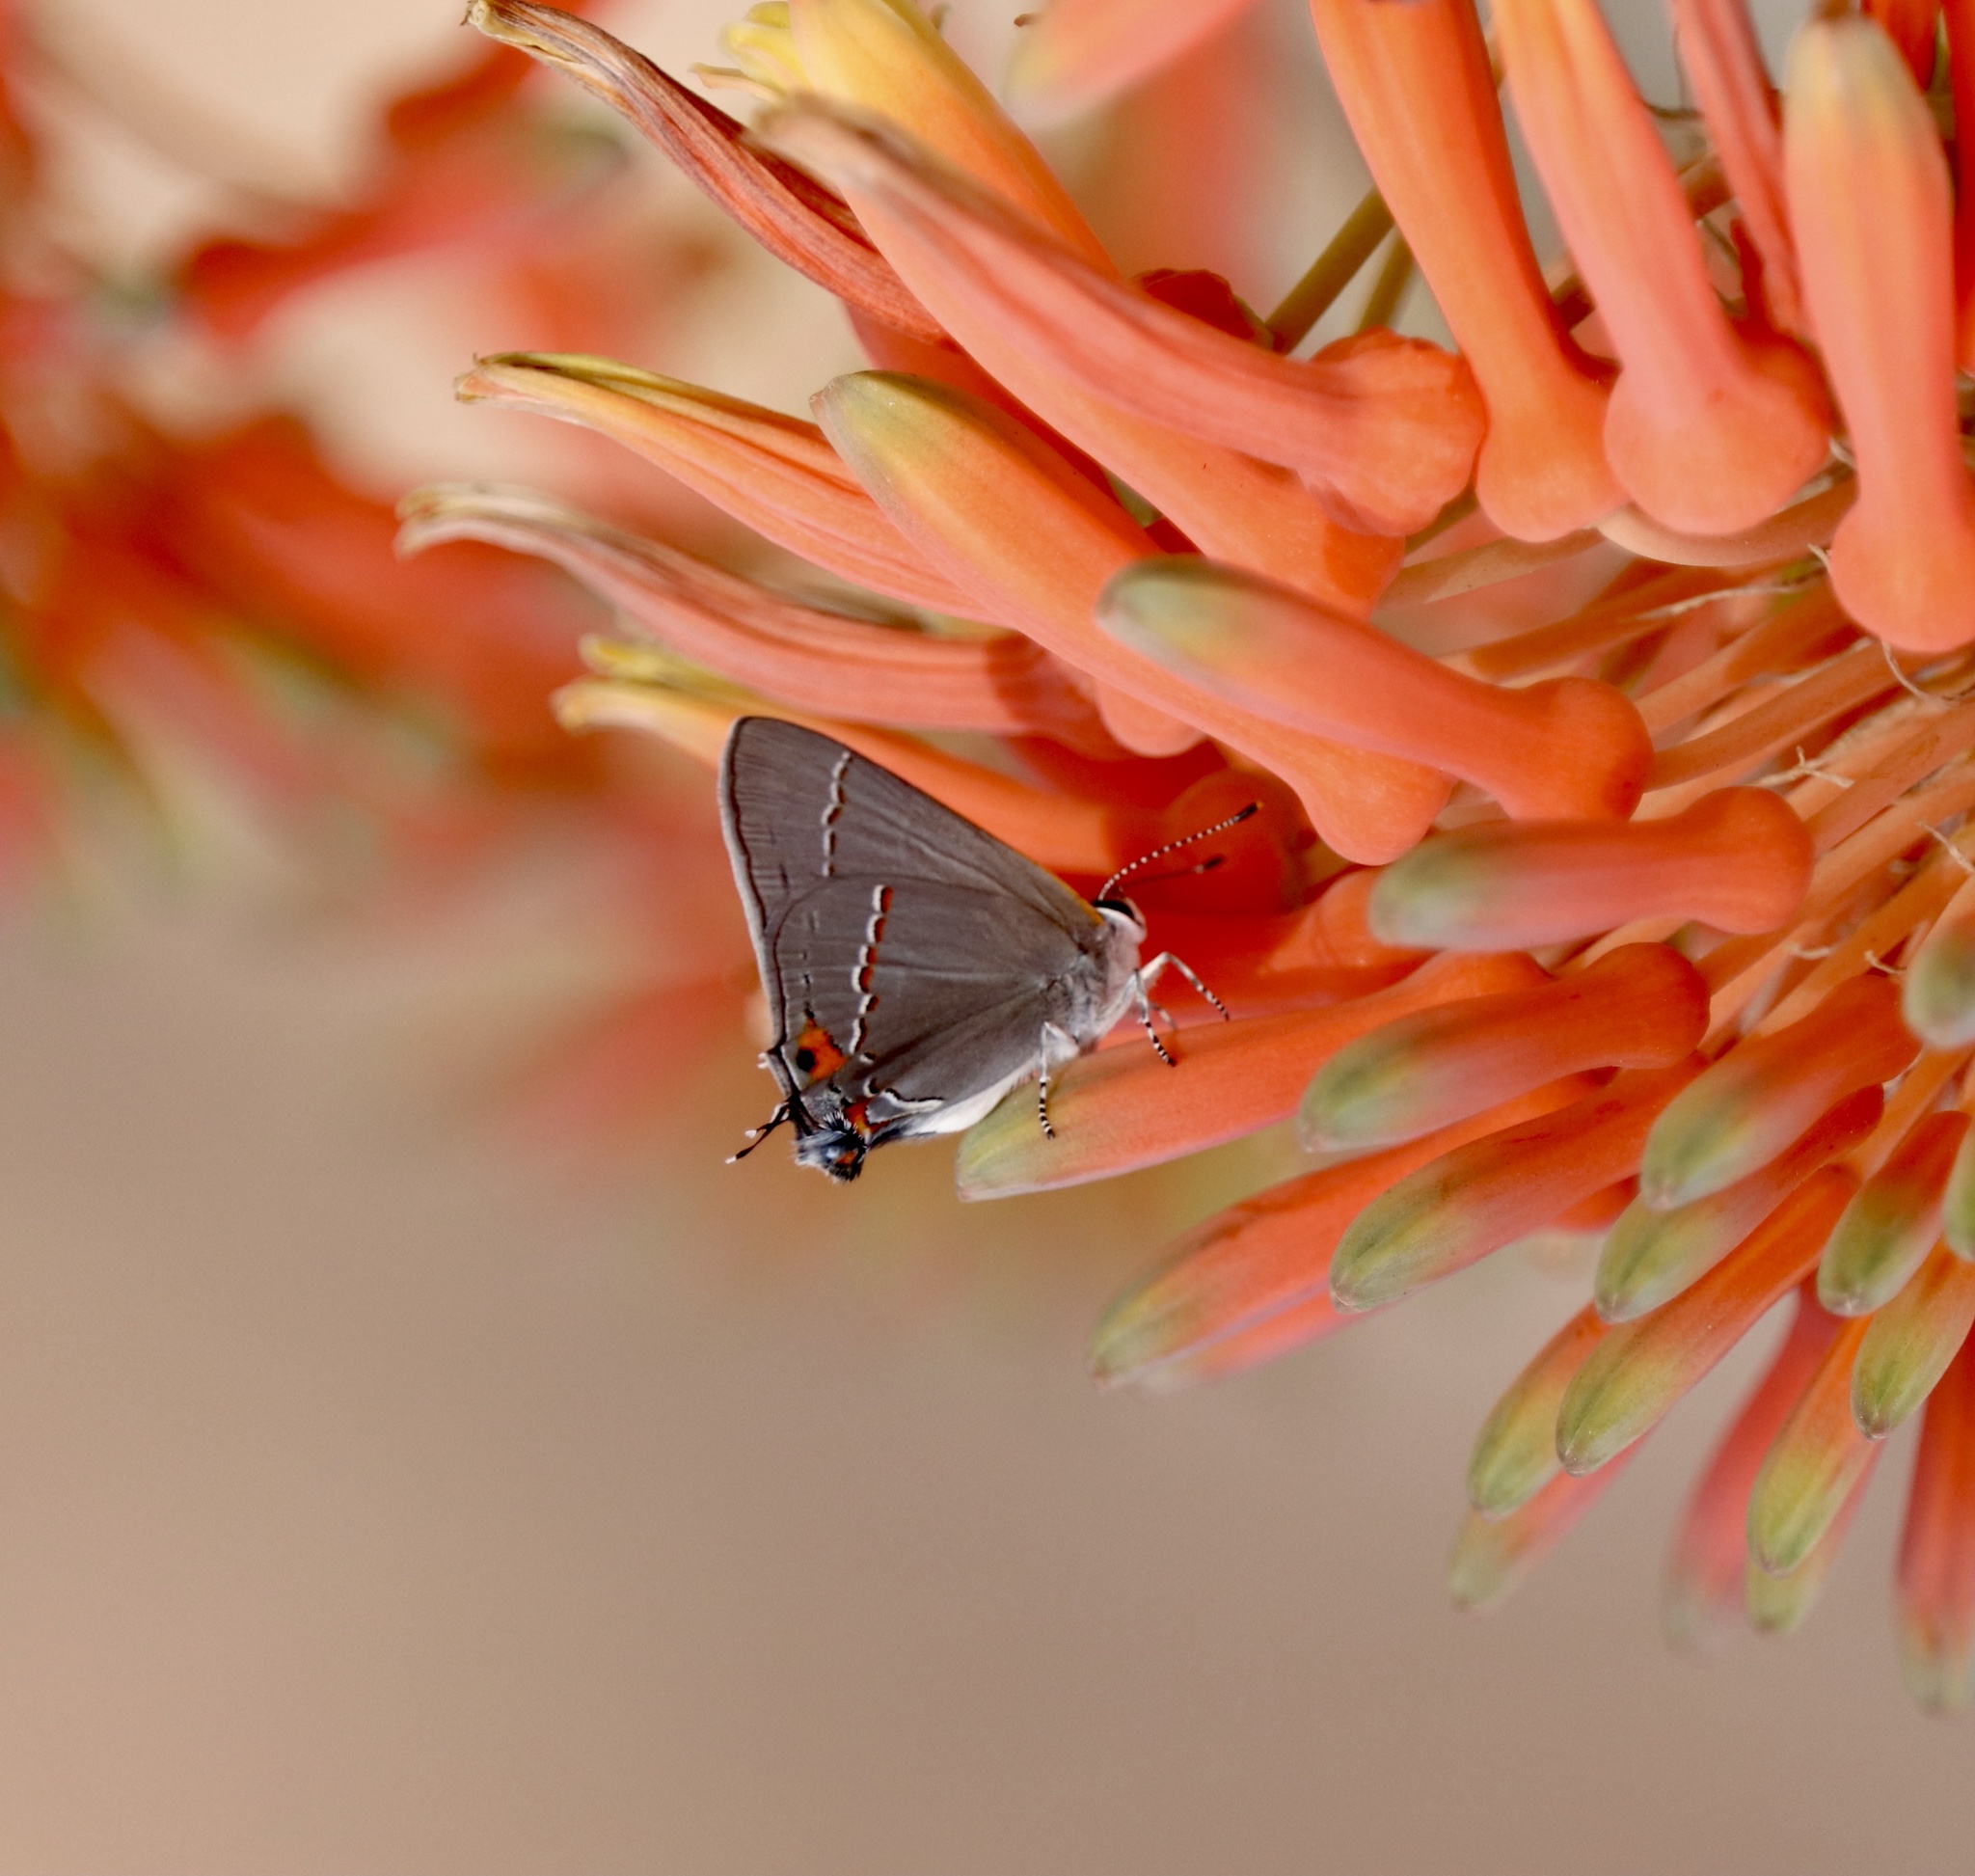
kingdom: Animalia
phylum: Arthropoda
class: Insecta
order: Lepidoptera
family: Lycaenidae
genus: Strymon
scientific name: Strymon melinus
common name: Gray hairstreak
